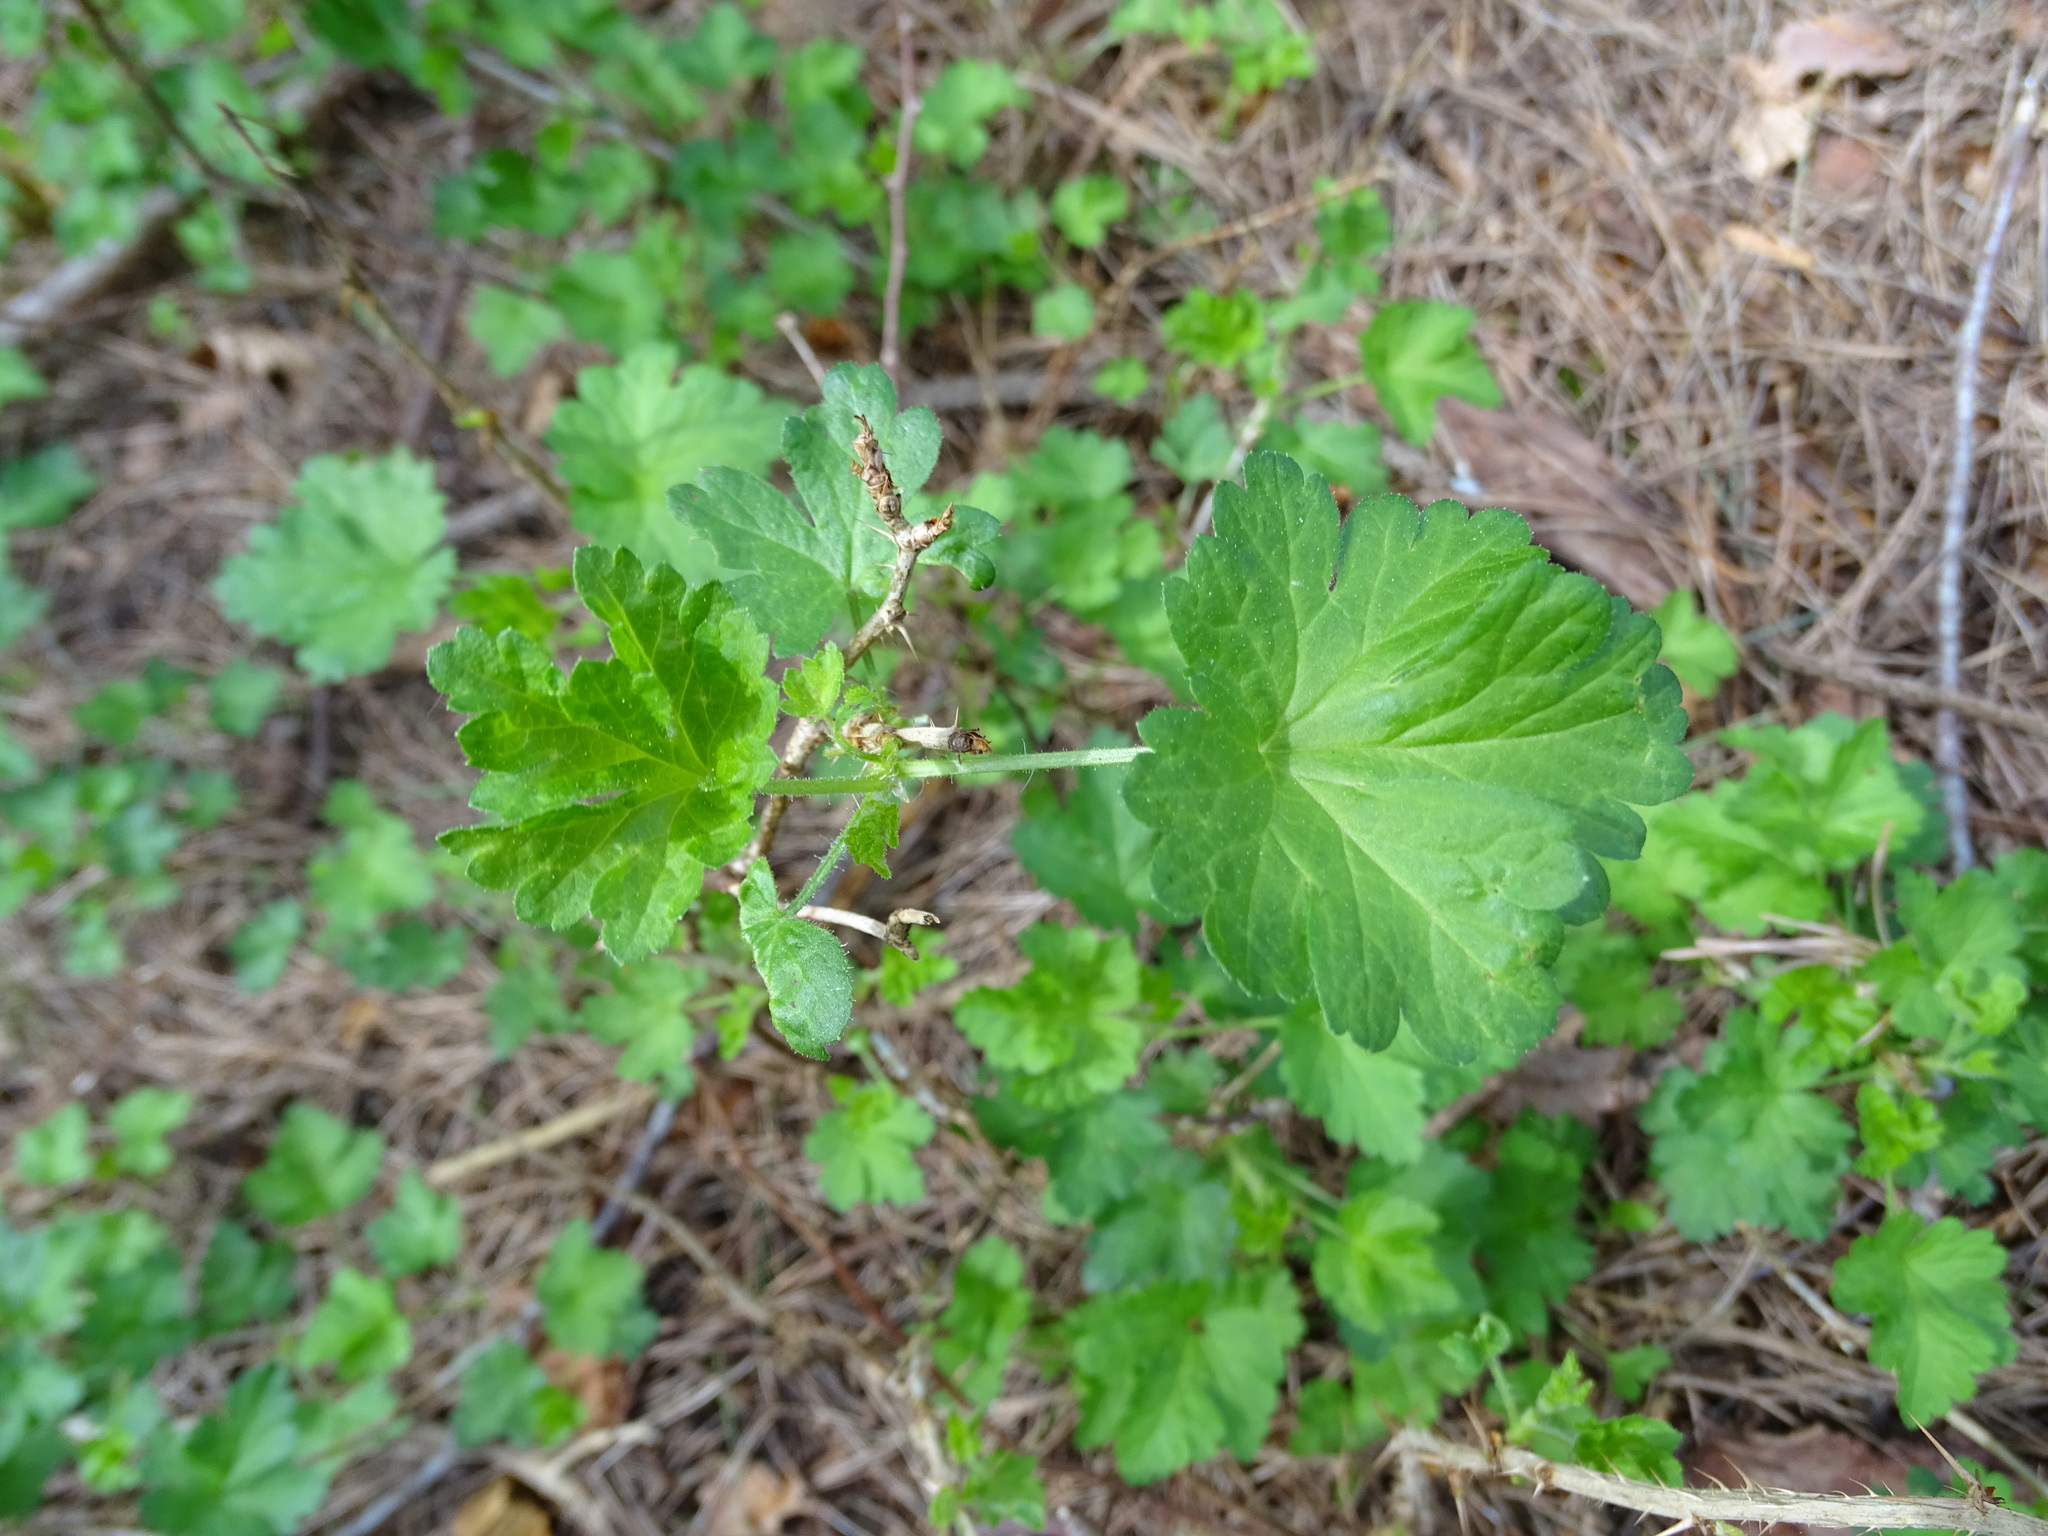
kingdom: Plantae
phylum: Tracheophyta
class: Magnoliopsida
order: Saxifragales
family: Grossulariaceae
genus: Ribes
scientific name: Ribes uva-crispa
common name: Gooseberry
